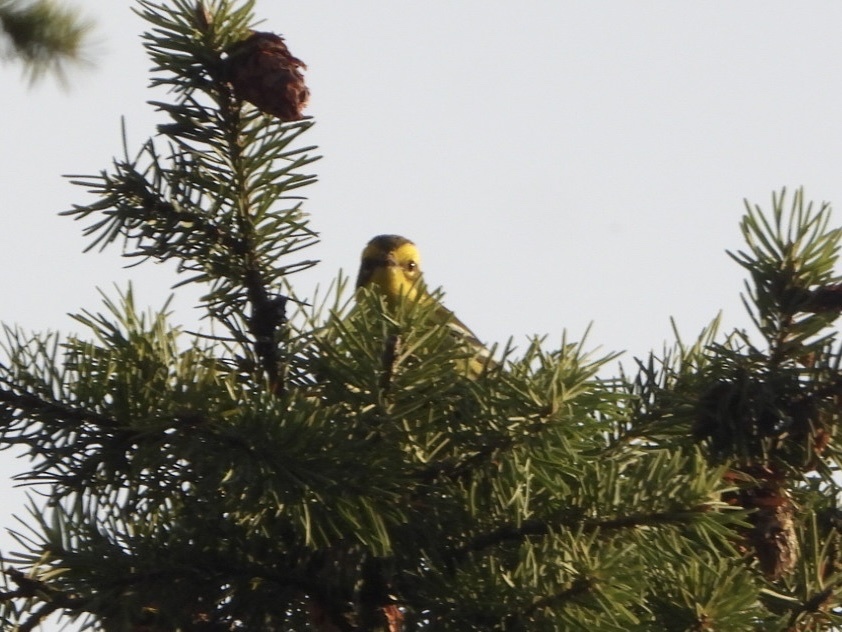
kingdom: Animalia
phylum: Chordata
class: Aves
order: Passeriformes
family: Parulidae
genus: Setophaga
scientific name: Setophaga townsendi
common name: Townsend's warbler
